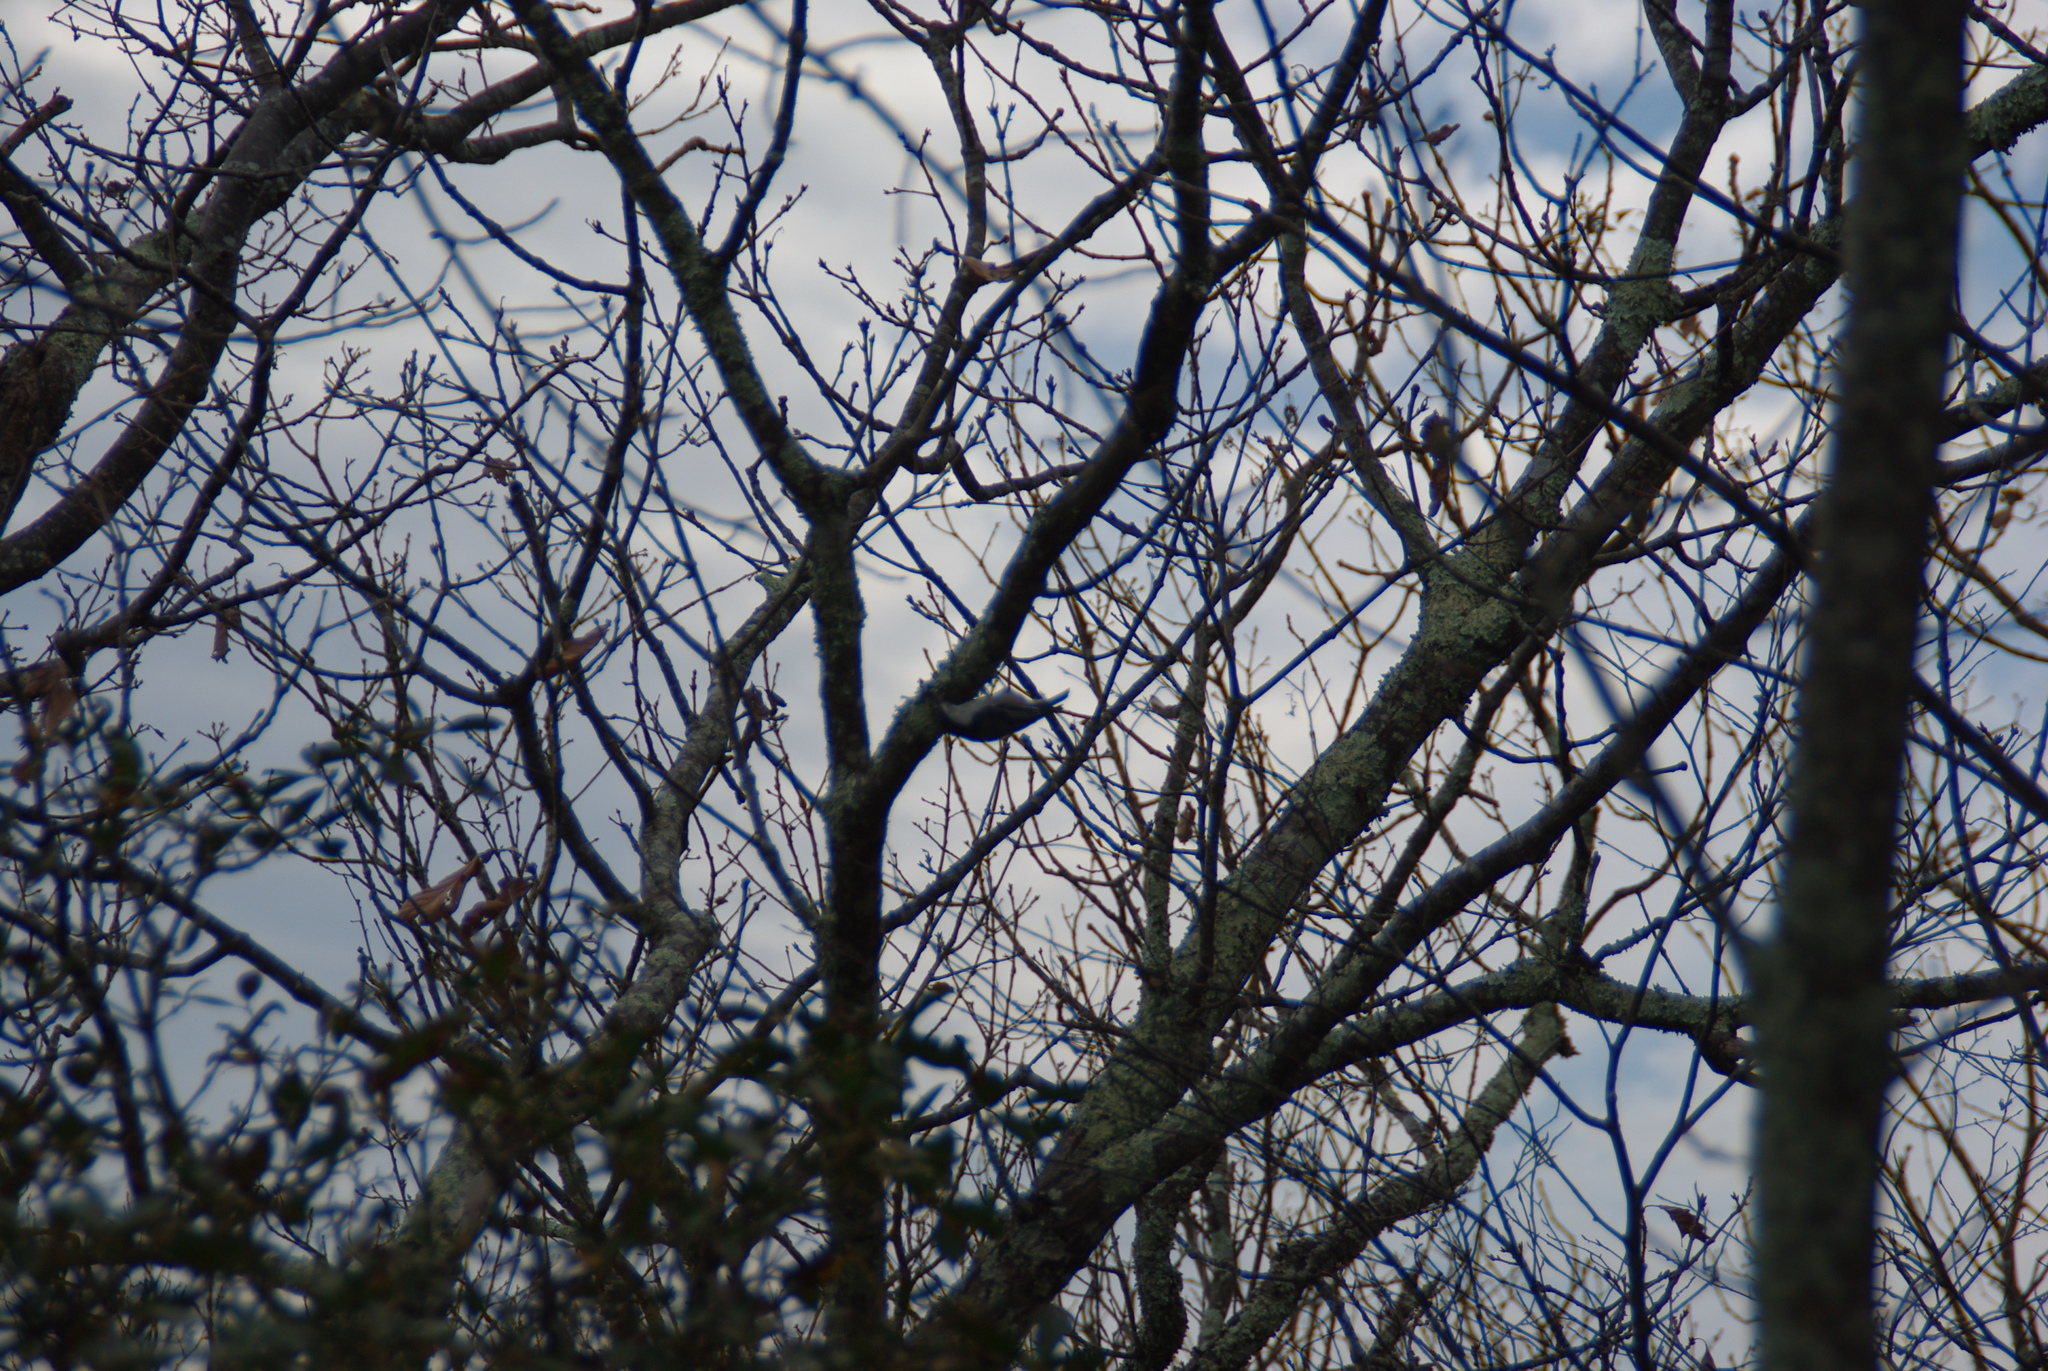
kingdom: Animalia
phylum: Chordata
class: Aves
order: Passeriformes
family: Sittidae
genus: Sitta
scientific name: Sitta carolinensis
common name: White-breasted nuthatch
